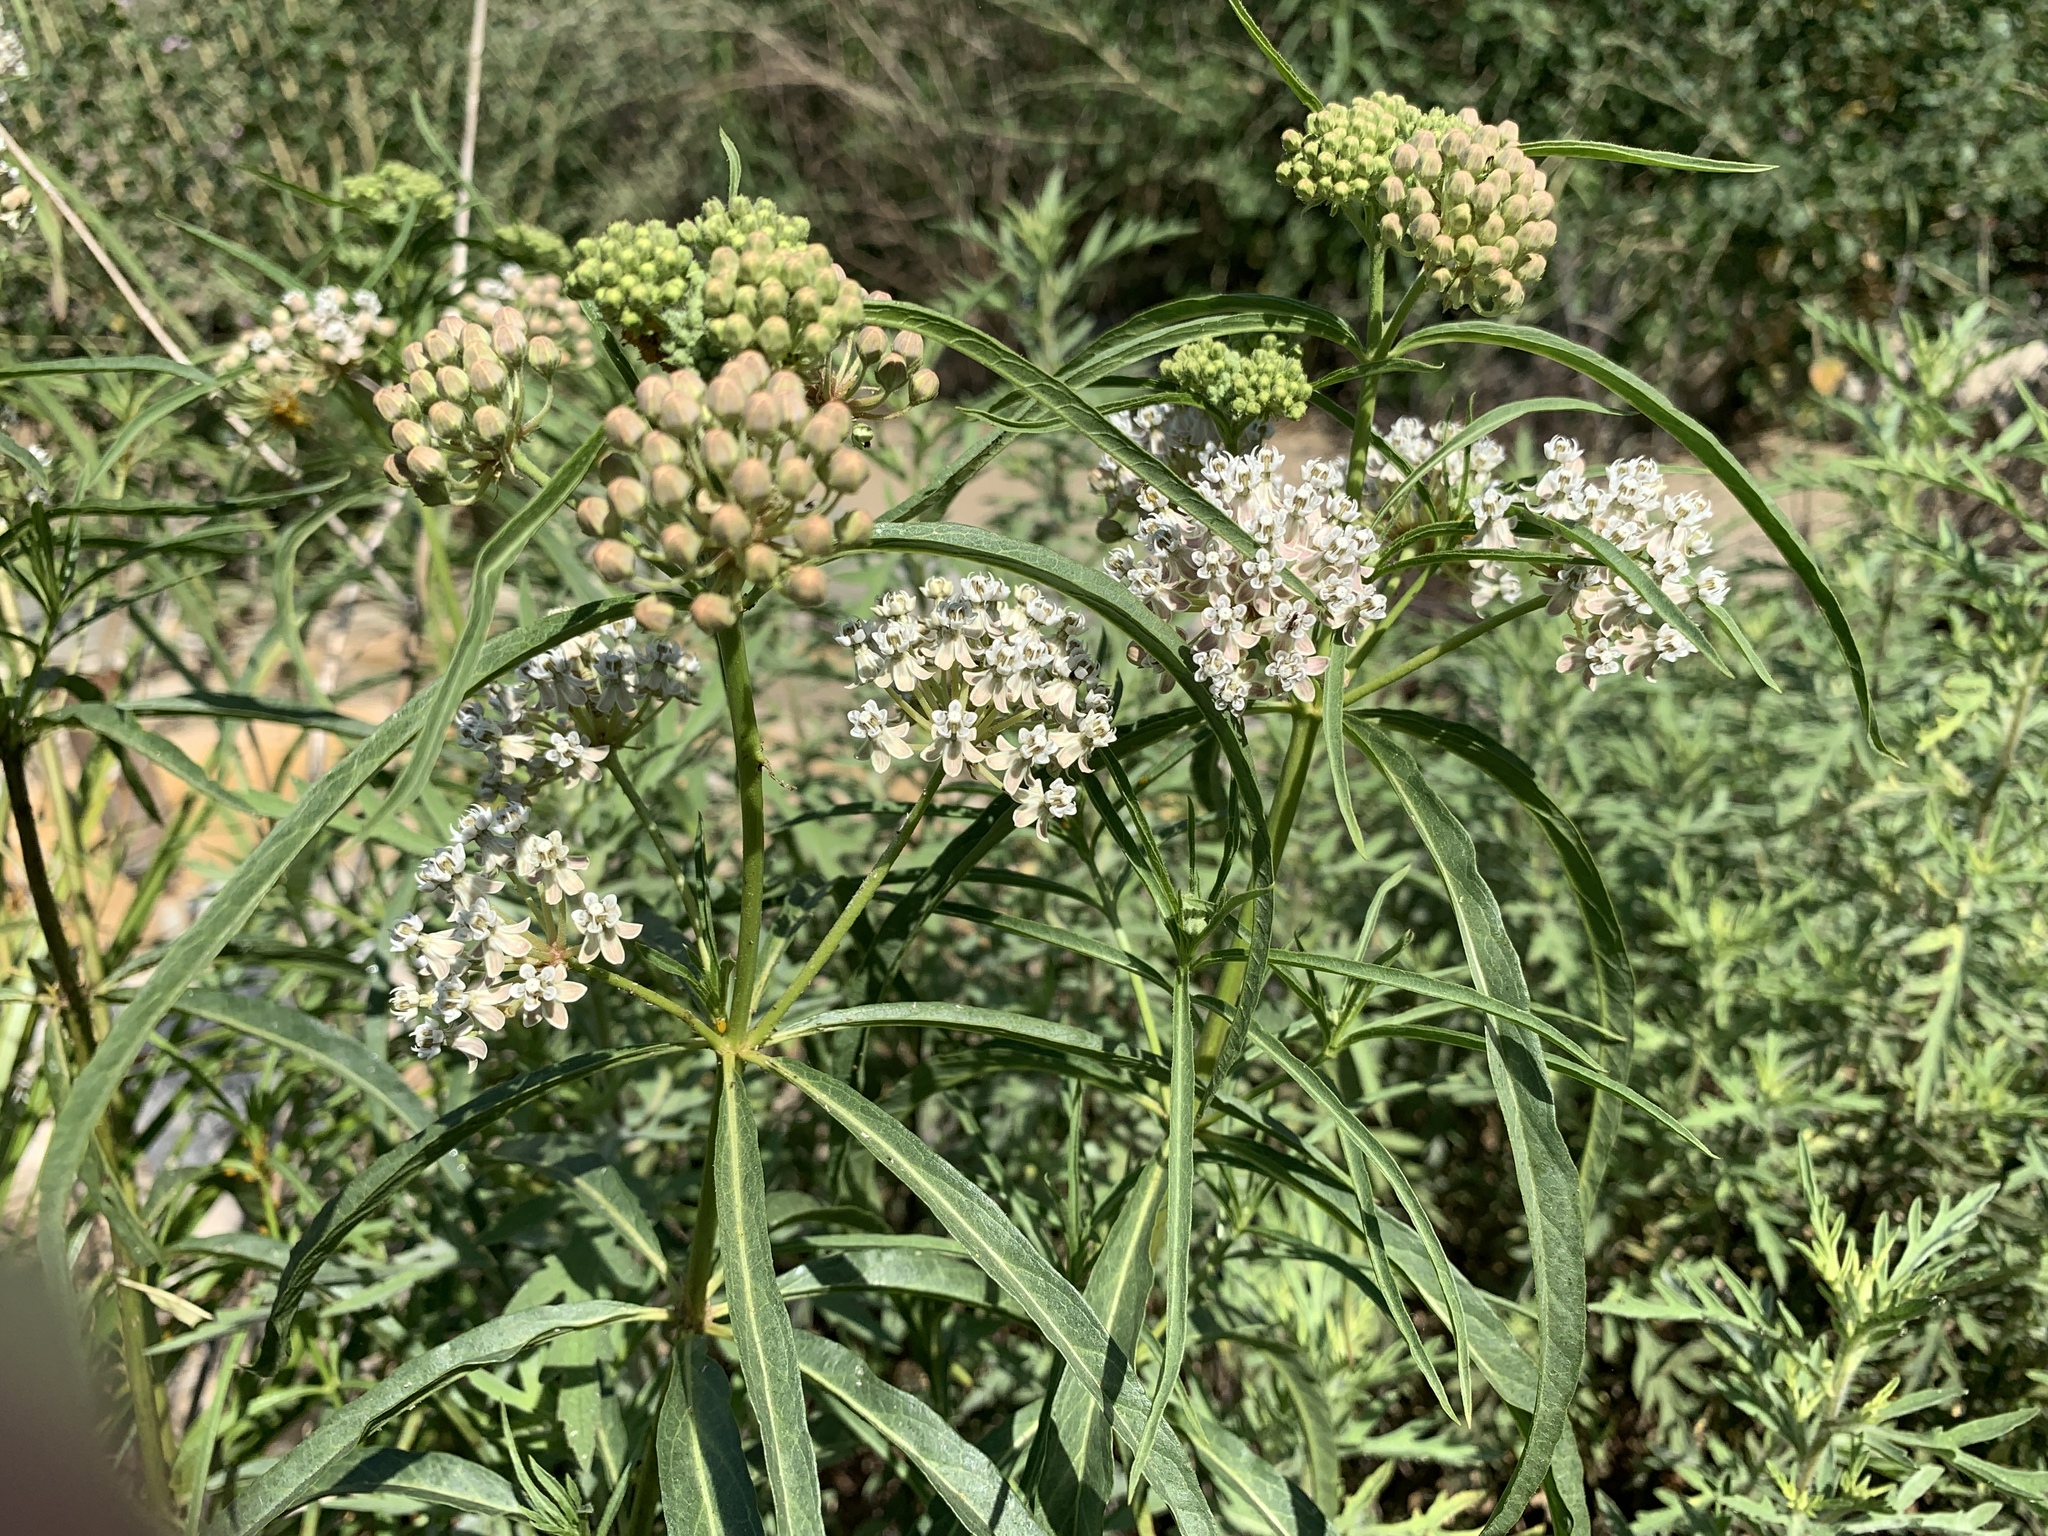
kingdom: Plantae
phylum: Tracheophyta
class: Magnoliopsida
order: Gentianales
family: Apocynaceae
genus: Asclepias
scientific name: Asclepias fascicularis
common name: Mexican milkweed
